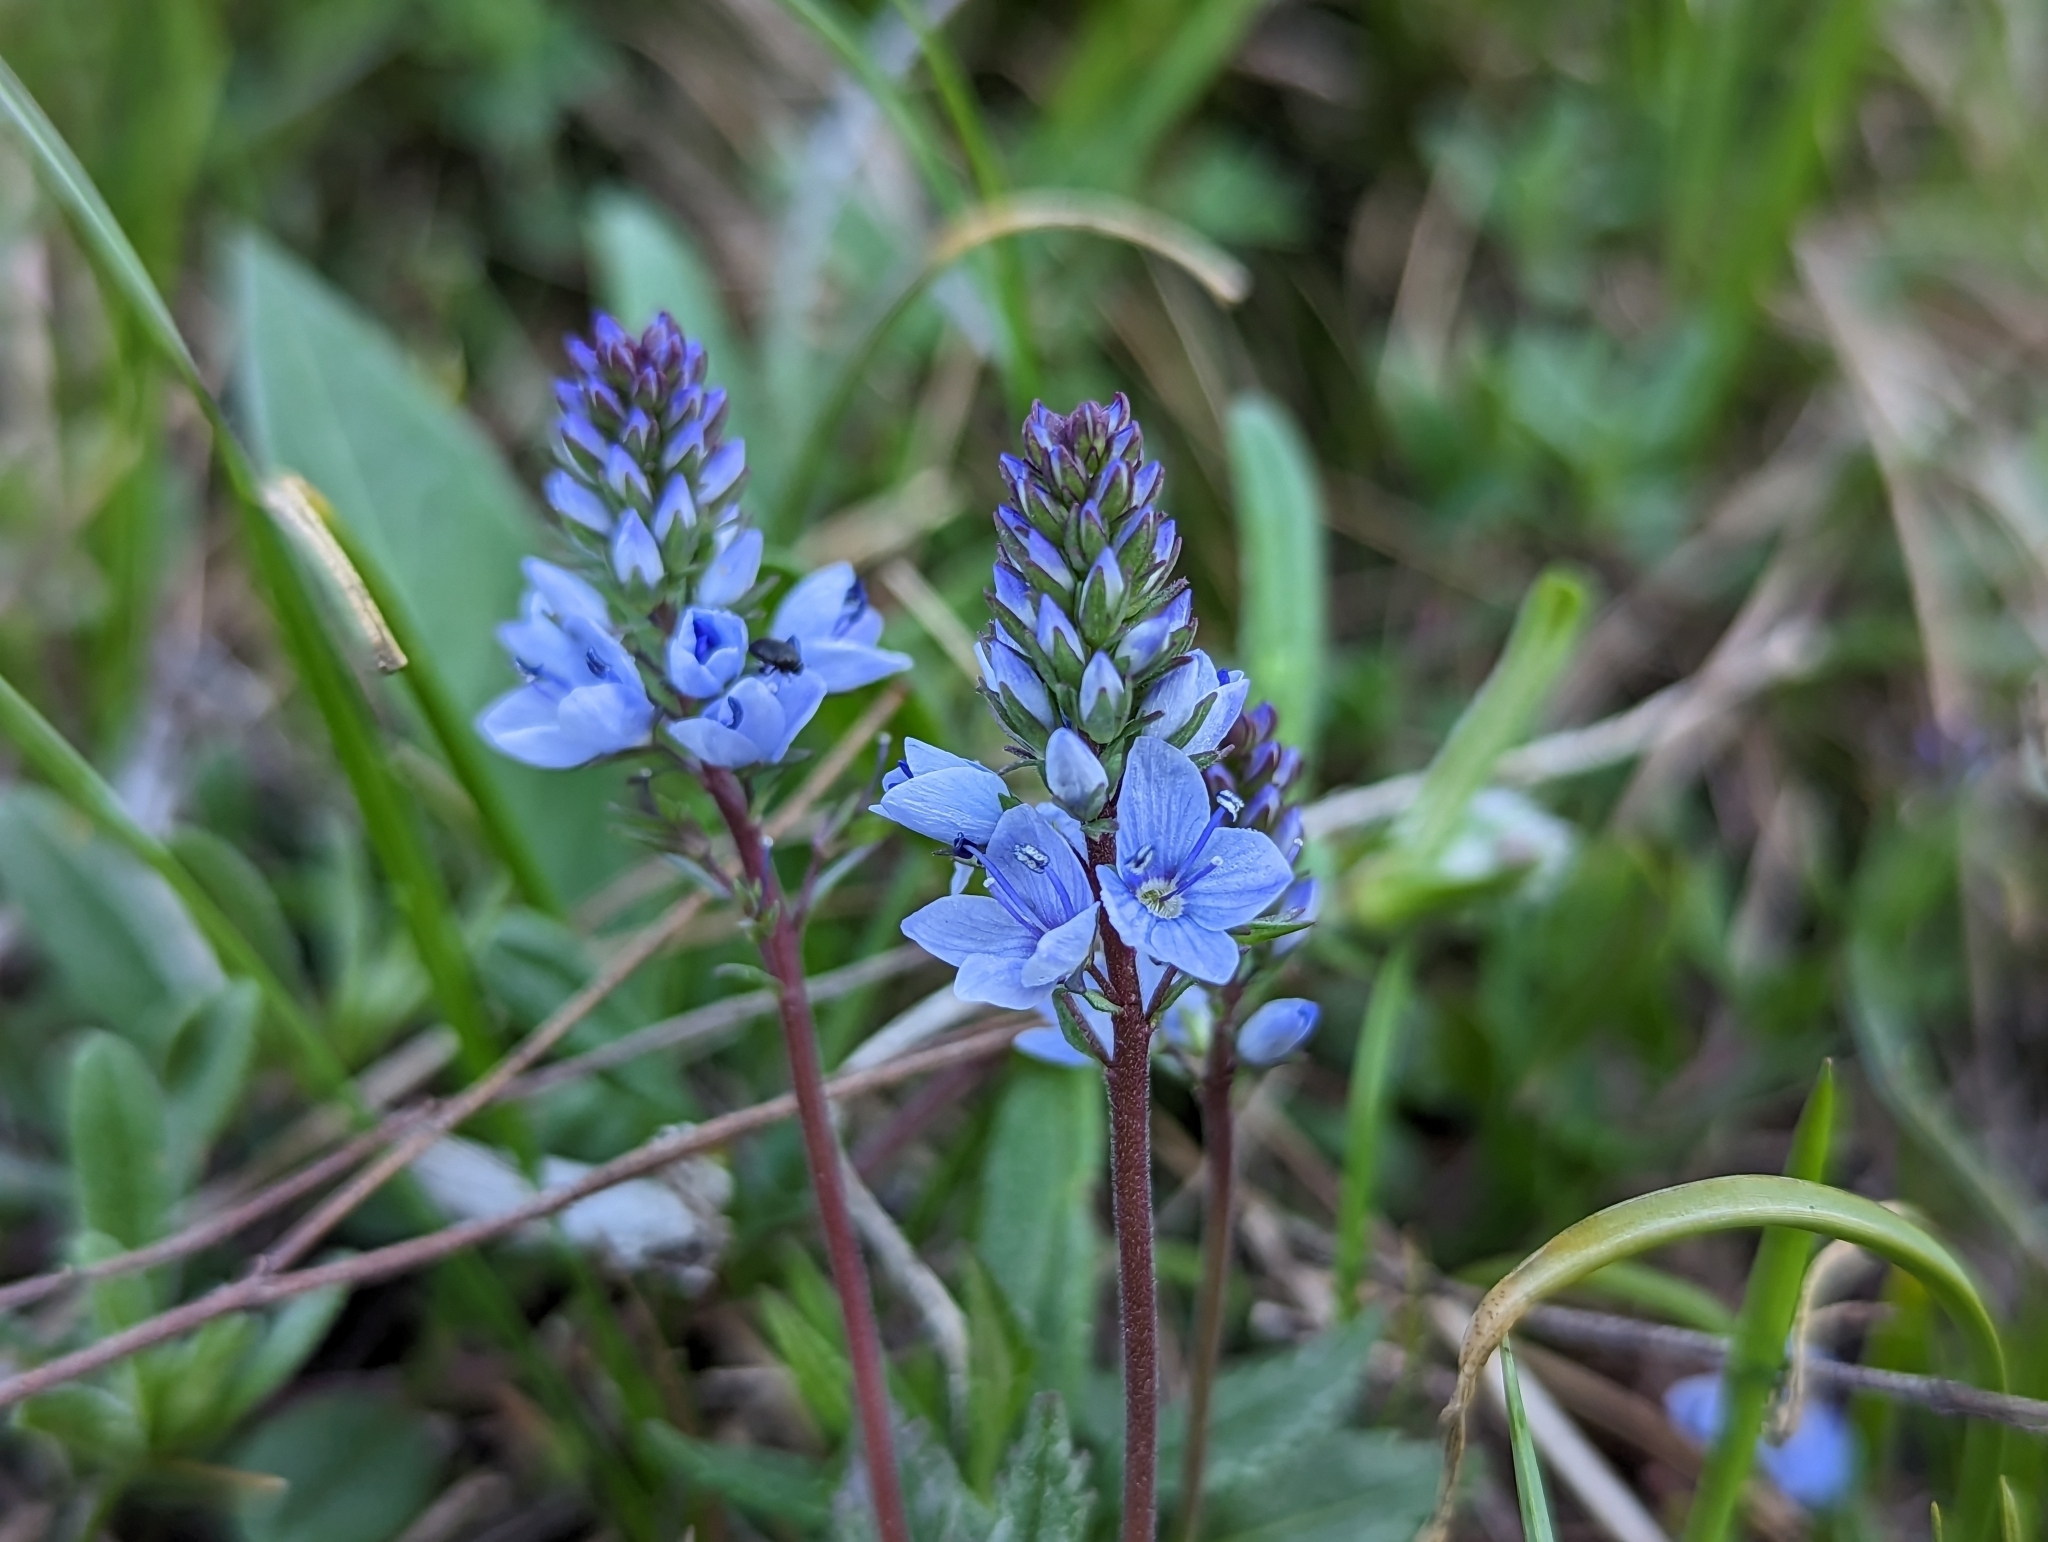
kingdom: Plantae
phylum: Tracheophyta
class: Magnoliopsida
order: Lamiales
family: Plantaginaceae
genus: Veronica
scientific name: Veronica prostrata
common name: Prostrate speedwell
